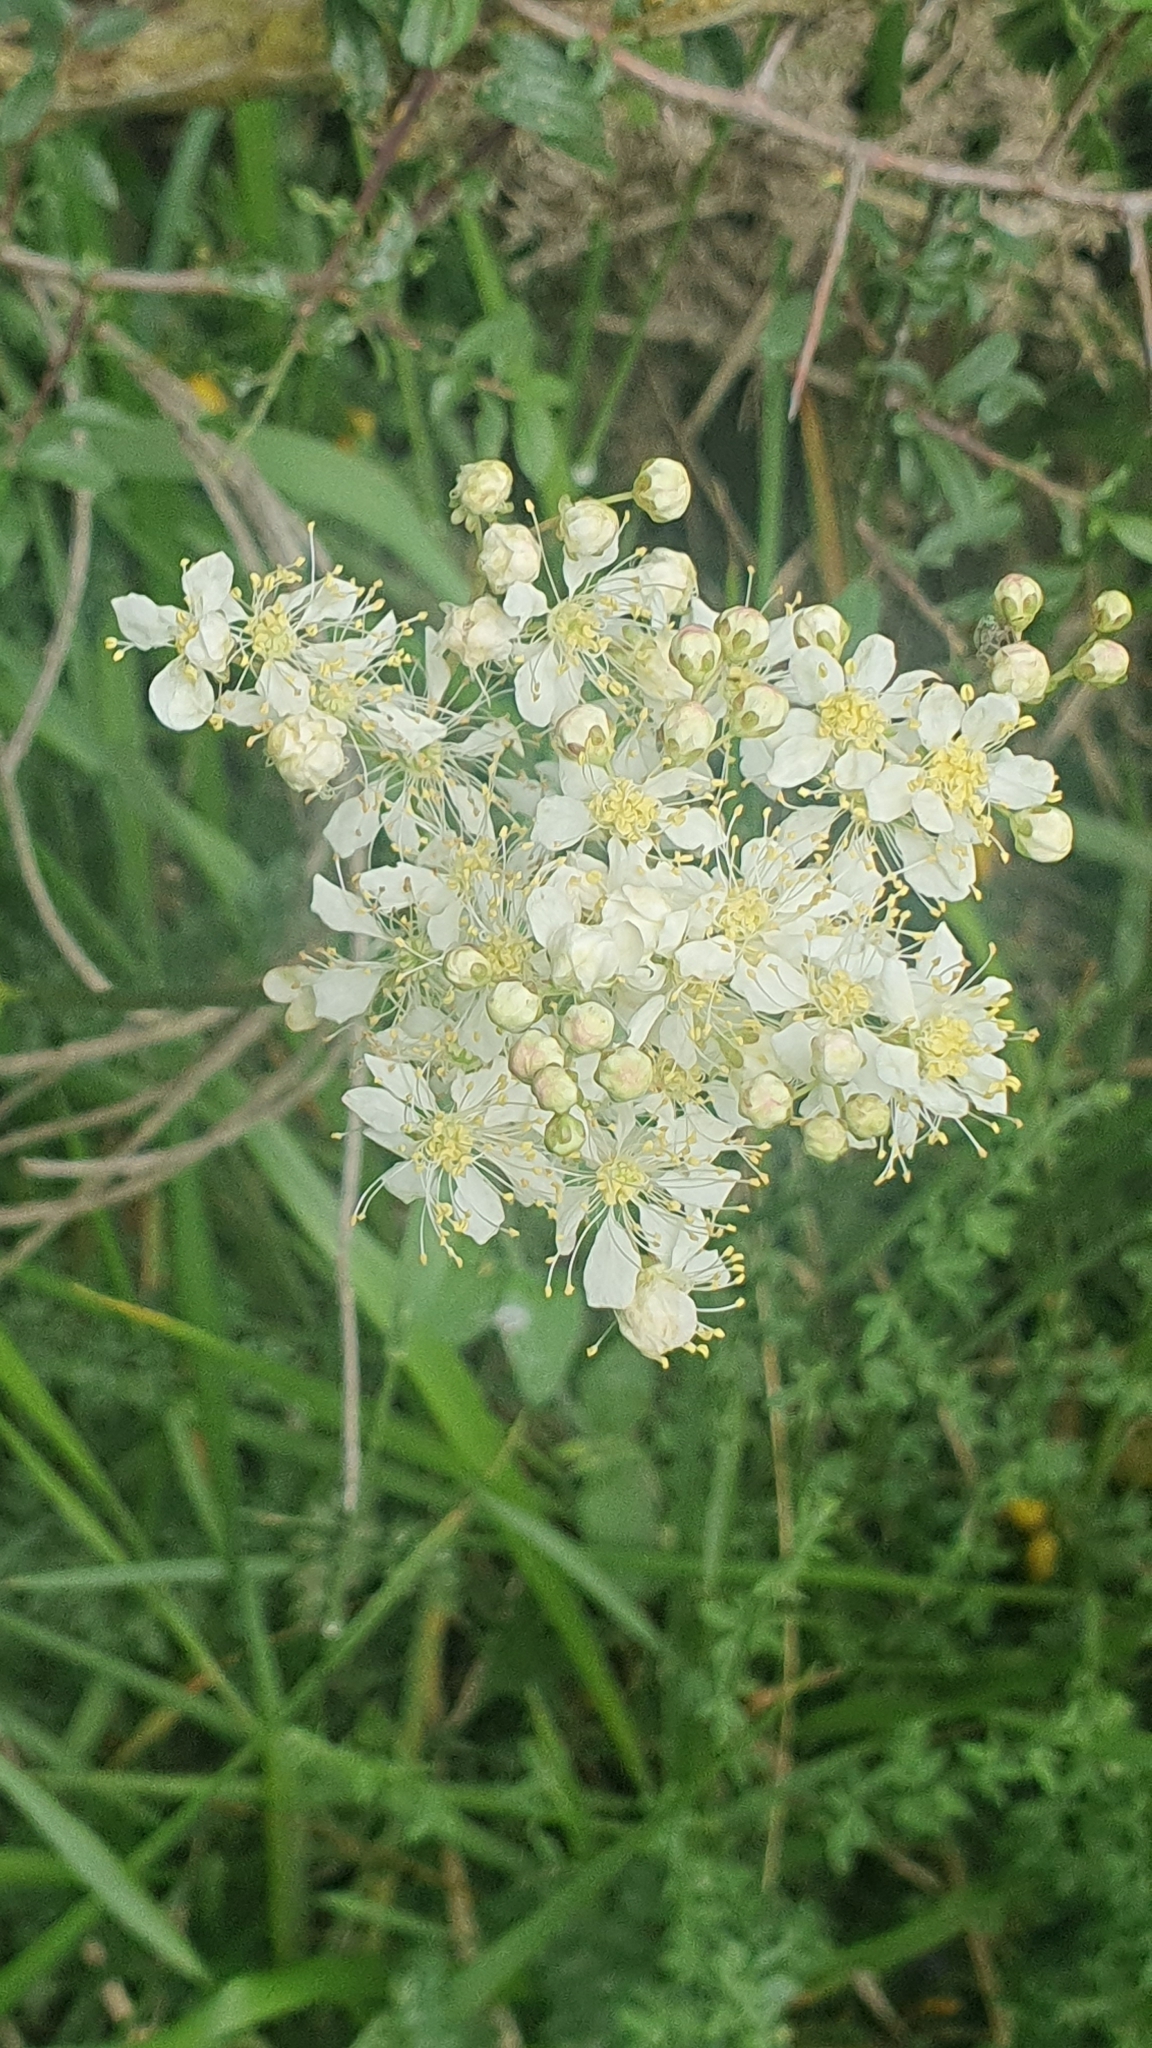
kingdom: Plantae
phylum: Tracheophyta
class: Magnoliopsida
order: Rosales
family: Rosaceae
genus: Filipendula
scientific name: Filipendula vulgaris
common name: Dropwort
